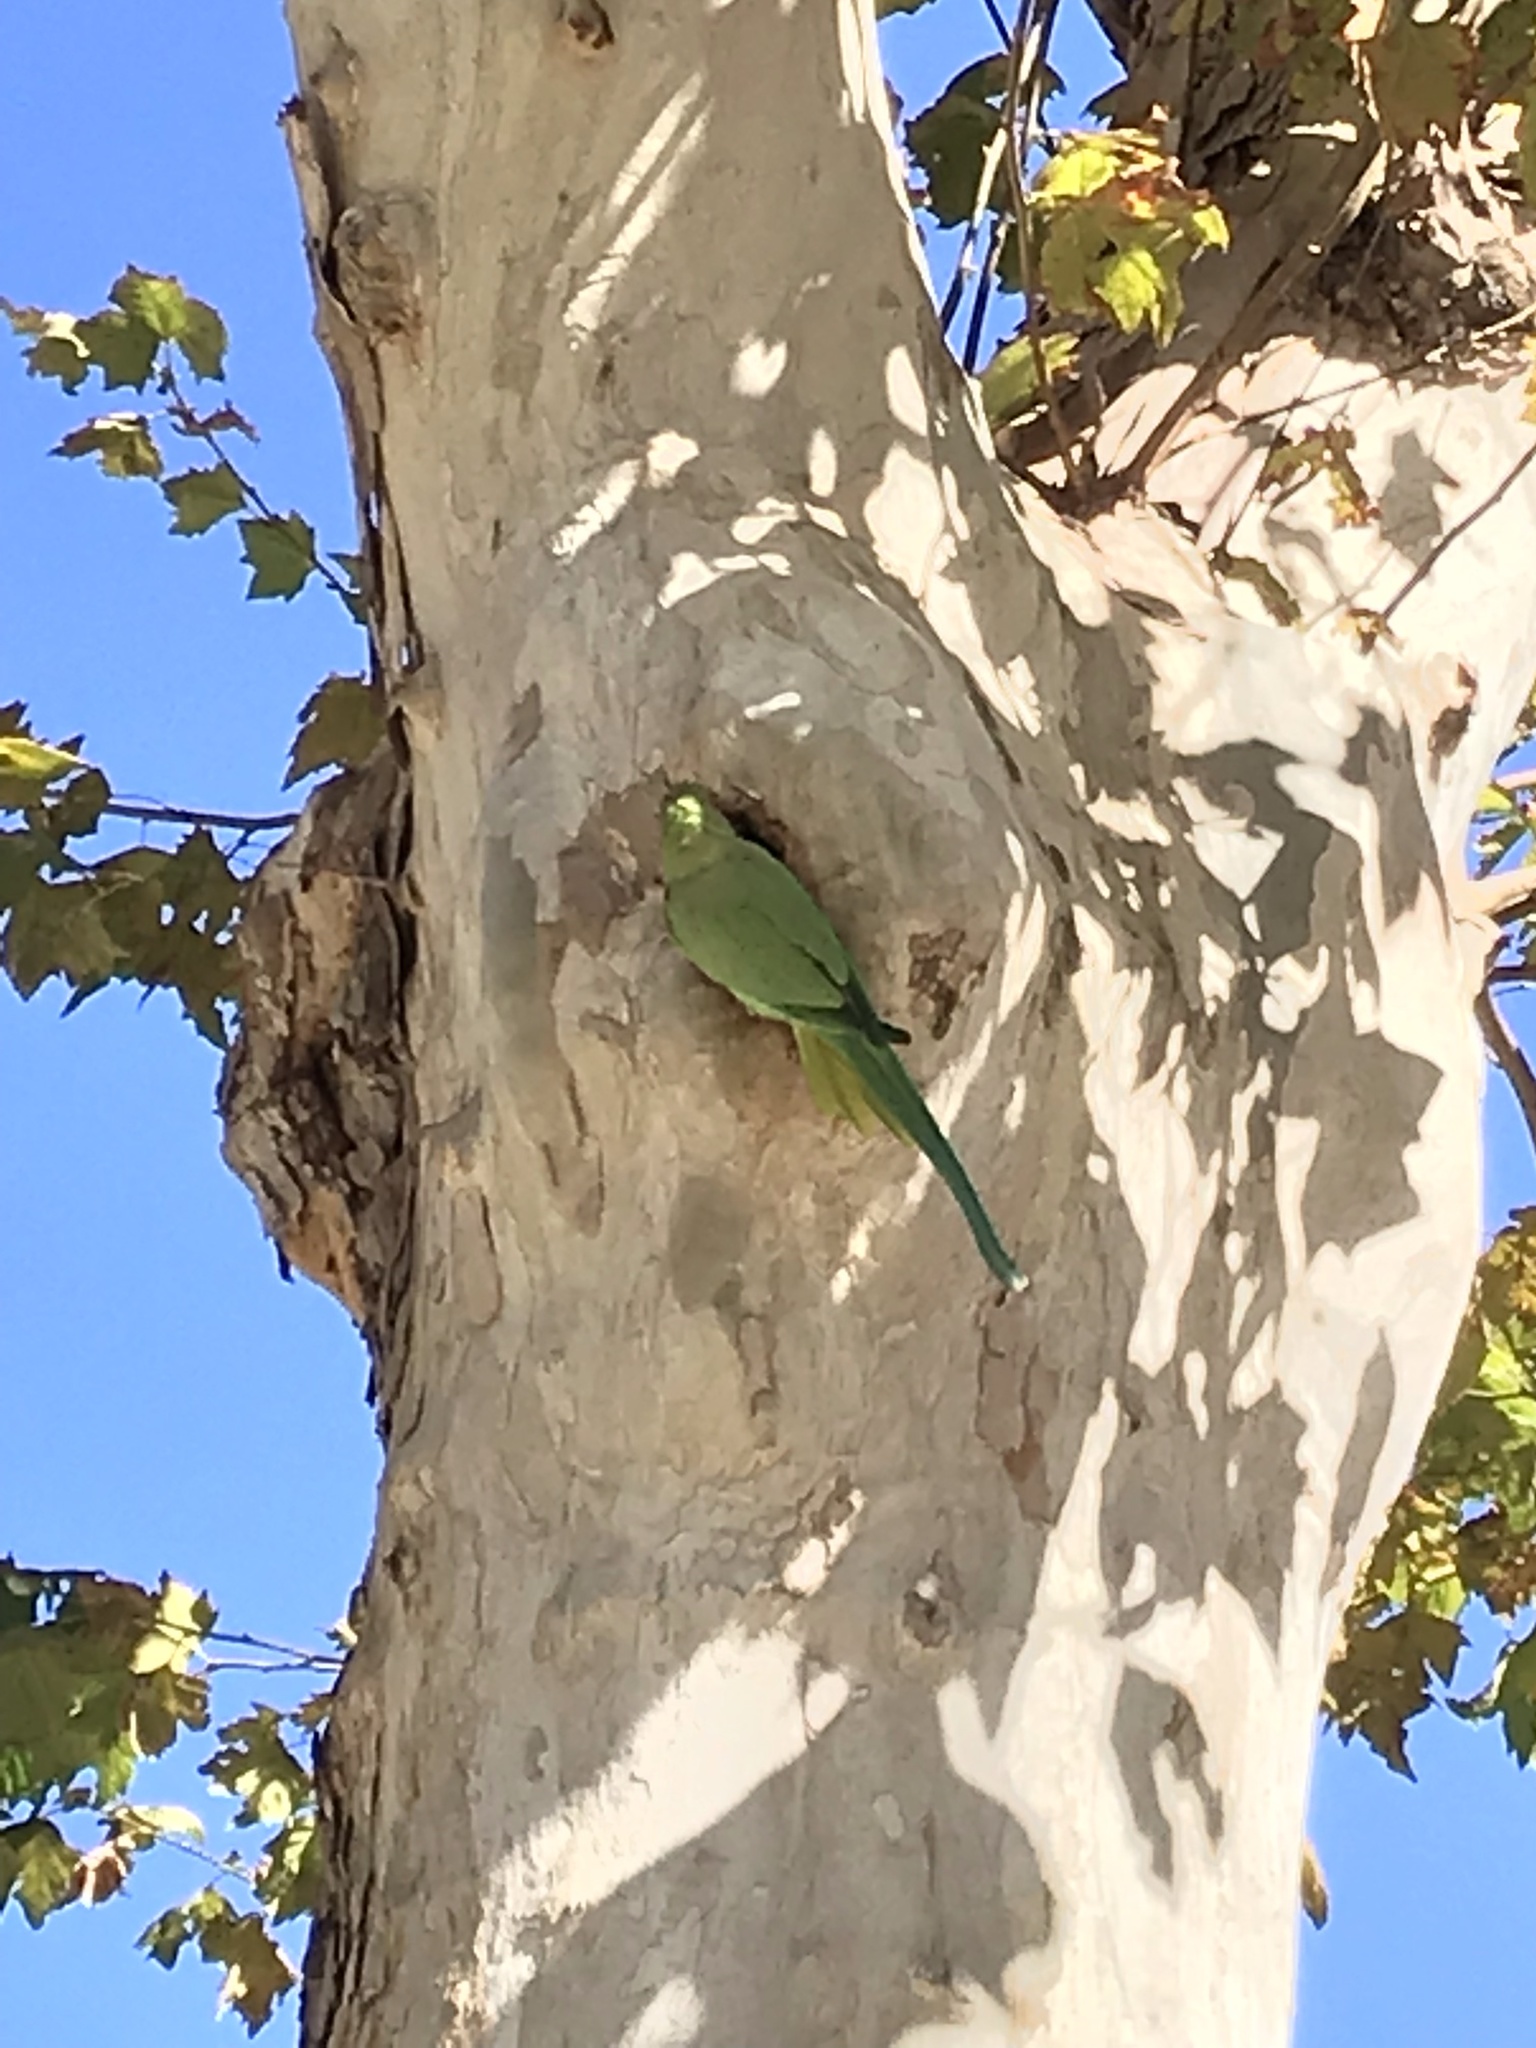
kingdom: Animalia
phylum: Chordata
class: Aves
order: Psittaciformes
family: Psittacidae
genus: Psittacula
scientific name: Psittacula krameri
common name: Rose-ringed parakeet
